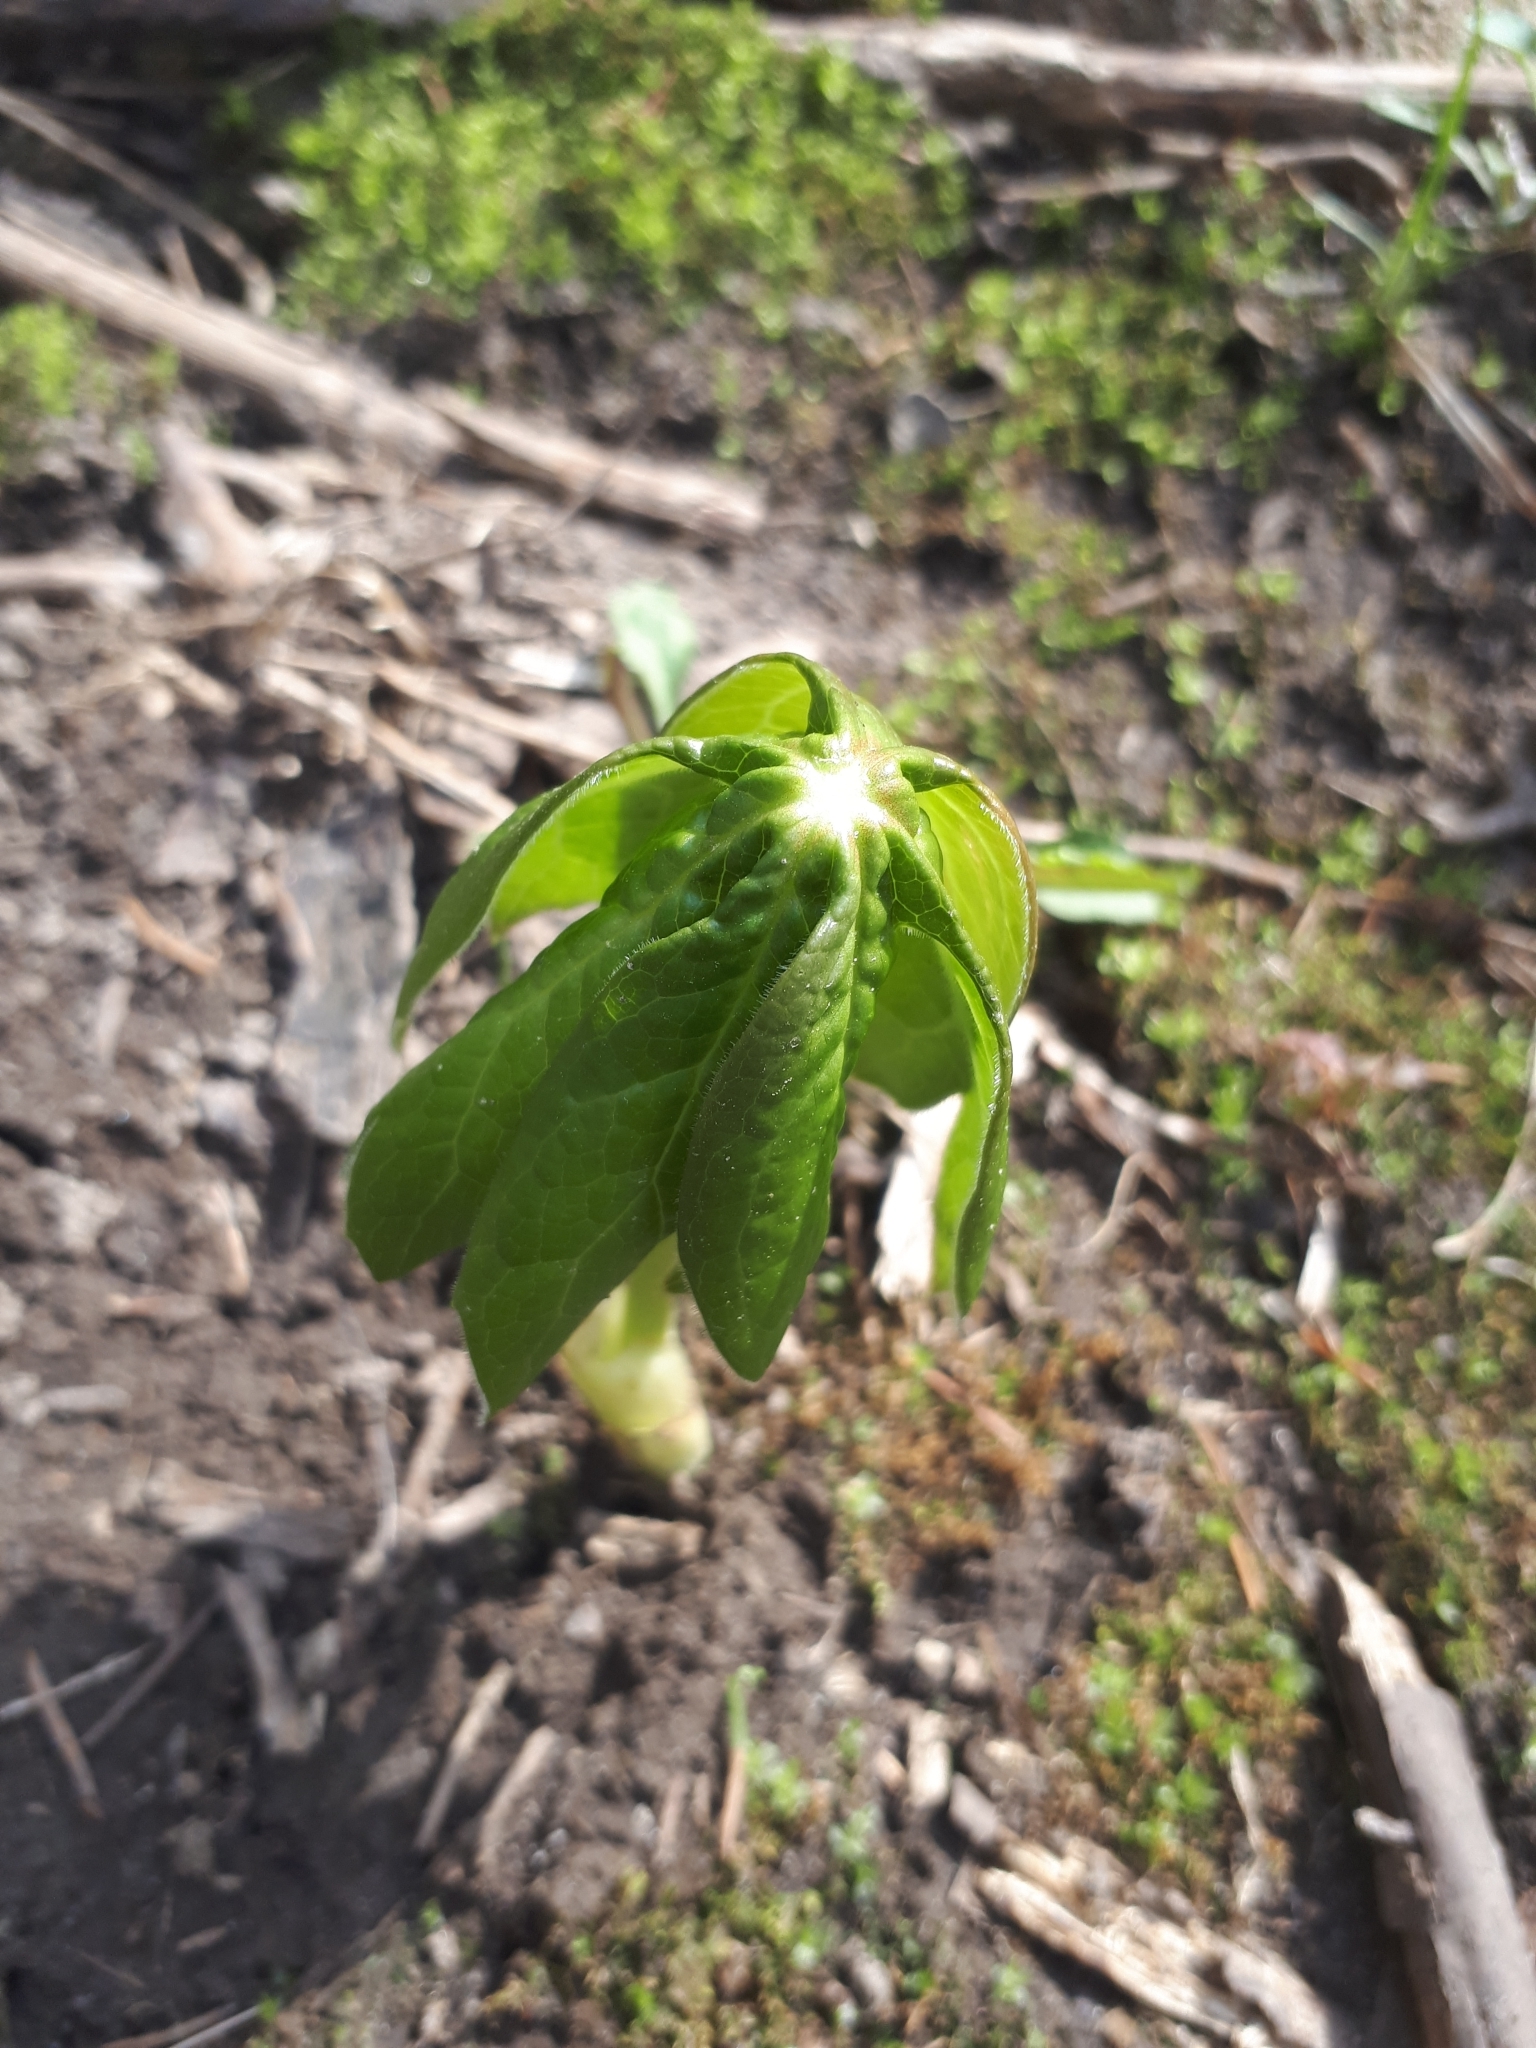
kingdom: Plantae
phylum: Tracheophyta
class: Magnoliopsida
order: Ranunculales
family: Berberidaceae
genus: Podophyllum
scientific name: Podophyllum peltatum
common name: Wild mandrake
